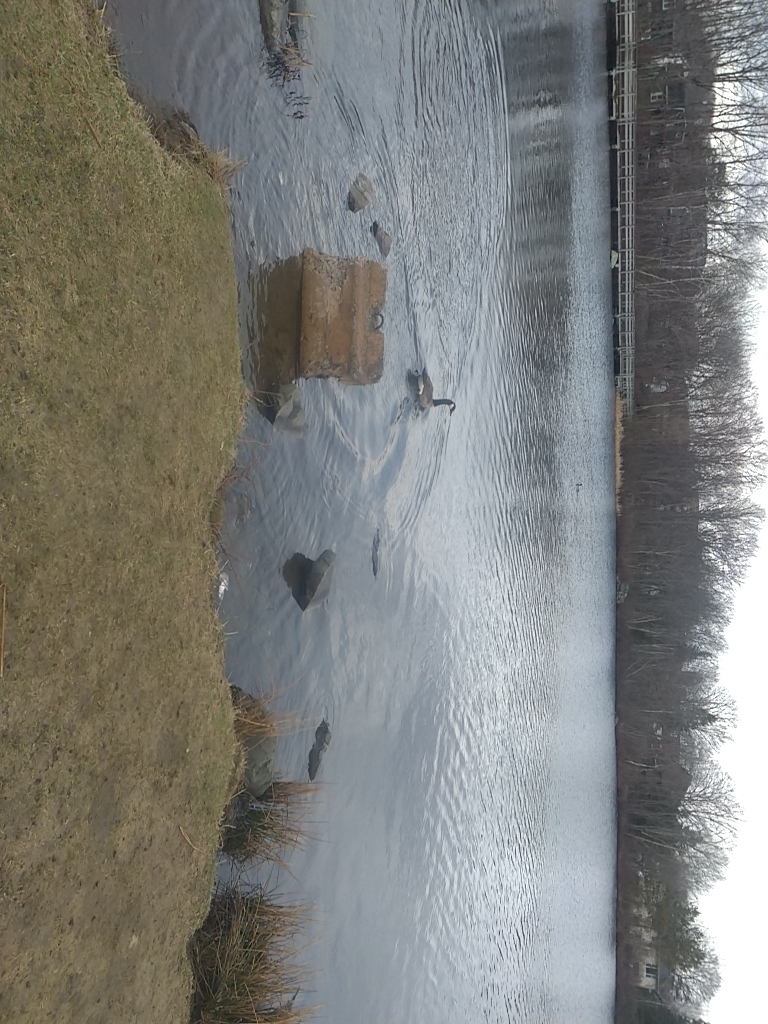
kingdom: Animalia
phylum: Chordata
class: Aves
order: Anseriformes
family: Anatidae
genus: Branta
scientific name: Branta canadensis
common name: Canada goose
